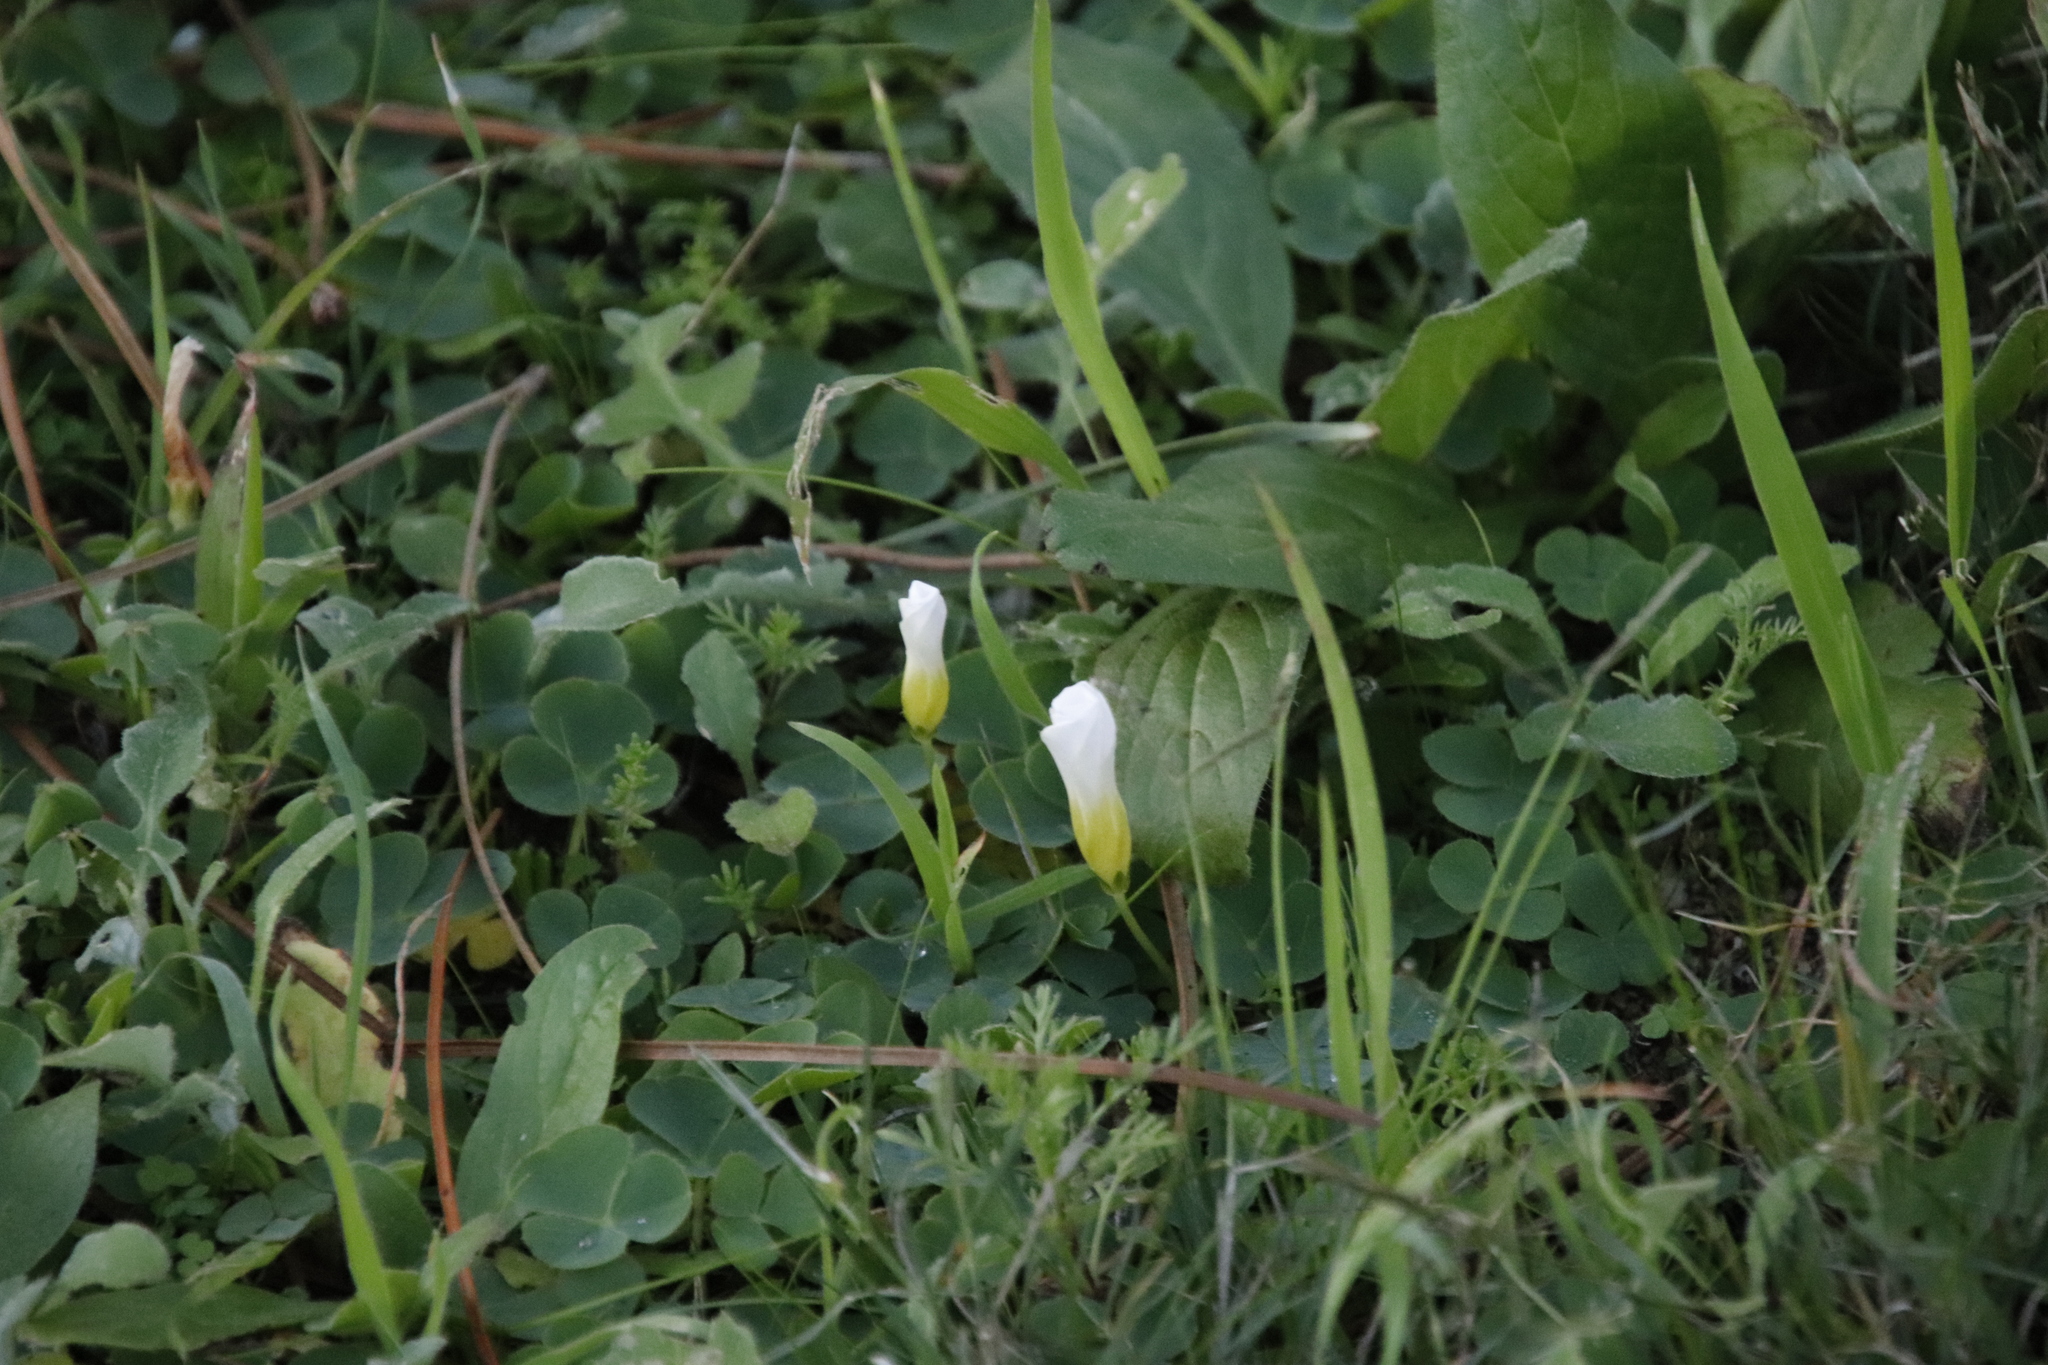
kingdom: Plantae
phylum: Tracheophyta
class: Magnoliopsida
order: Oxalidales
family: Oxalidaceae
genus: Oxalis
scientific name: Oxalis purpurea
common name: Purple woodsorrel
